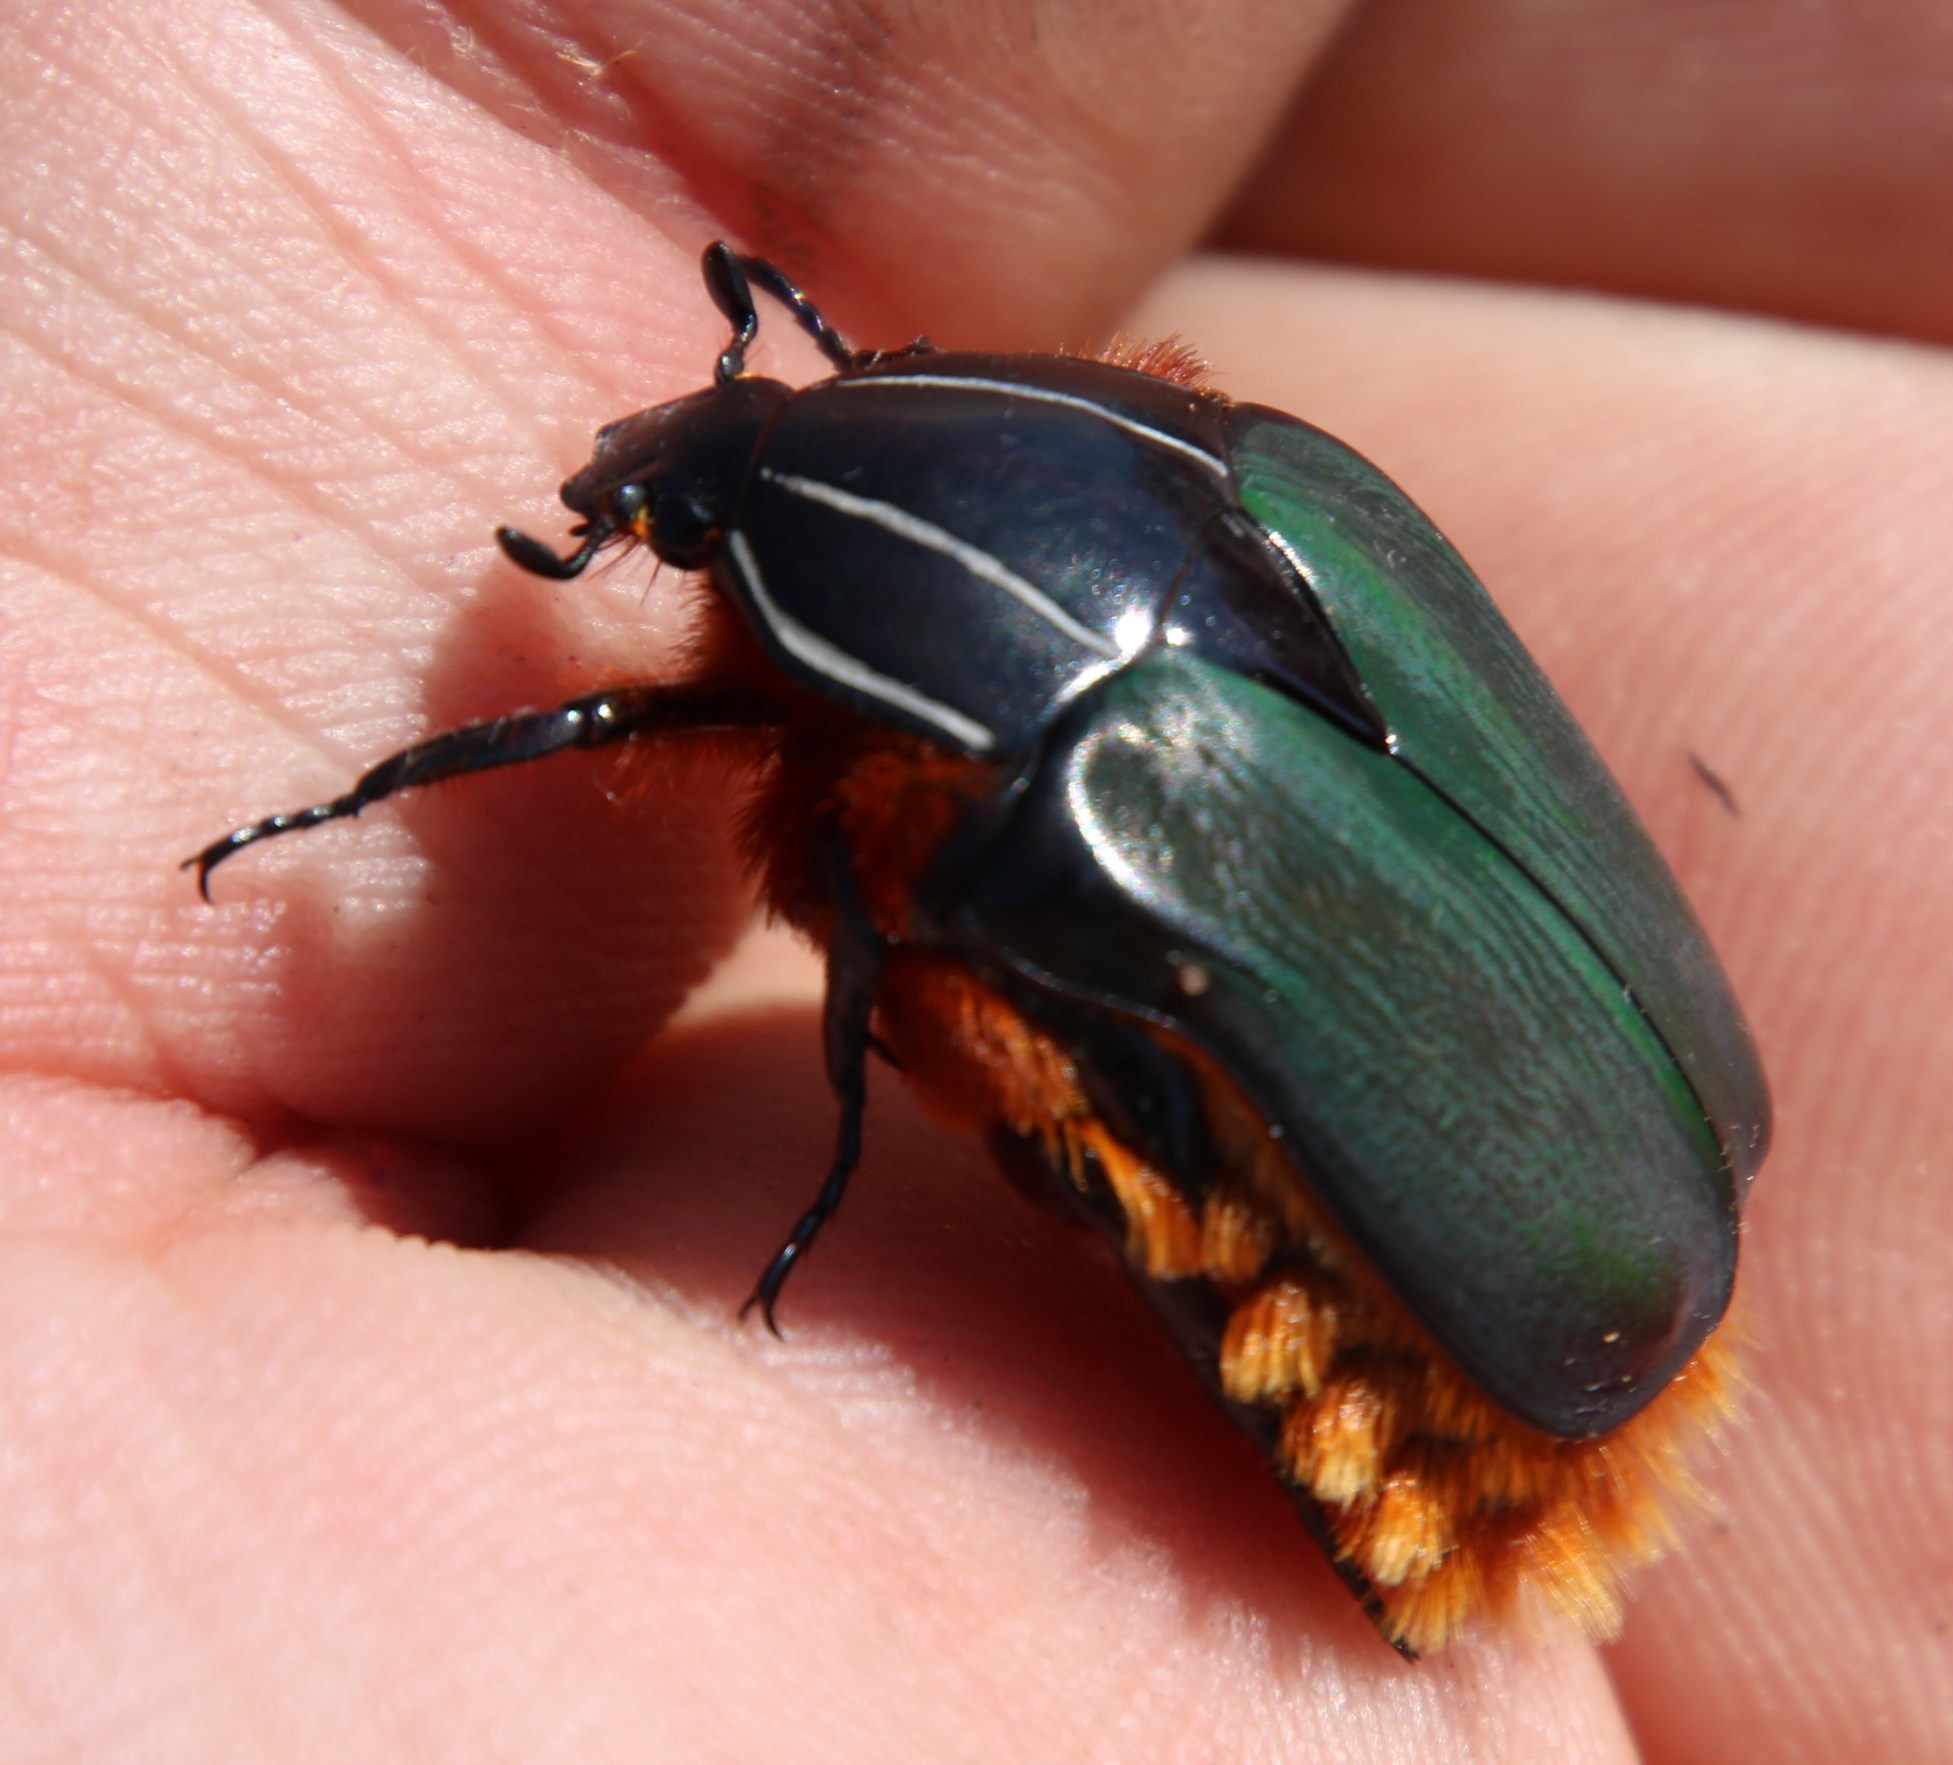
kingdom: Animalia
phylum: Arthropoda
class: Insecta
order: Coleoptera
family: Scarabaeidae
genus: Trichostetha
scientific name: Trichostetha fascicularis
